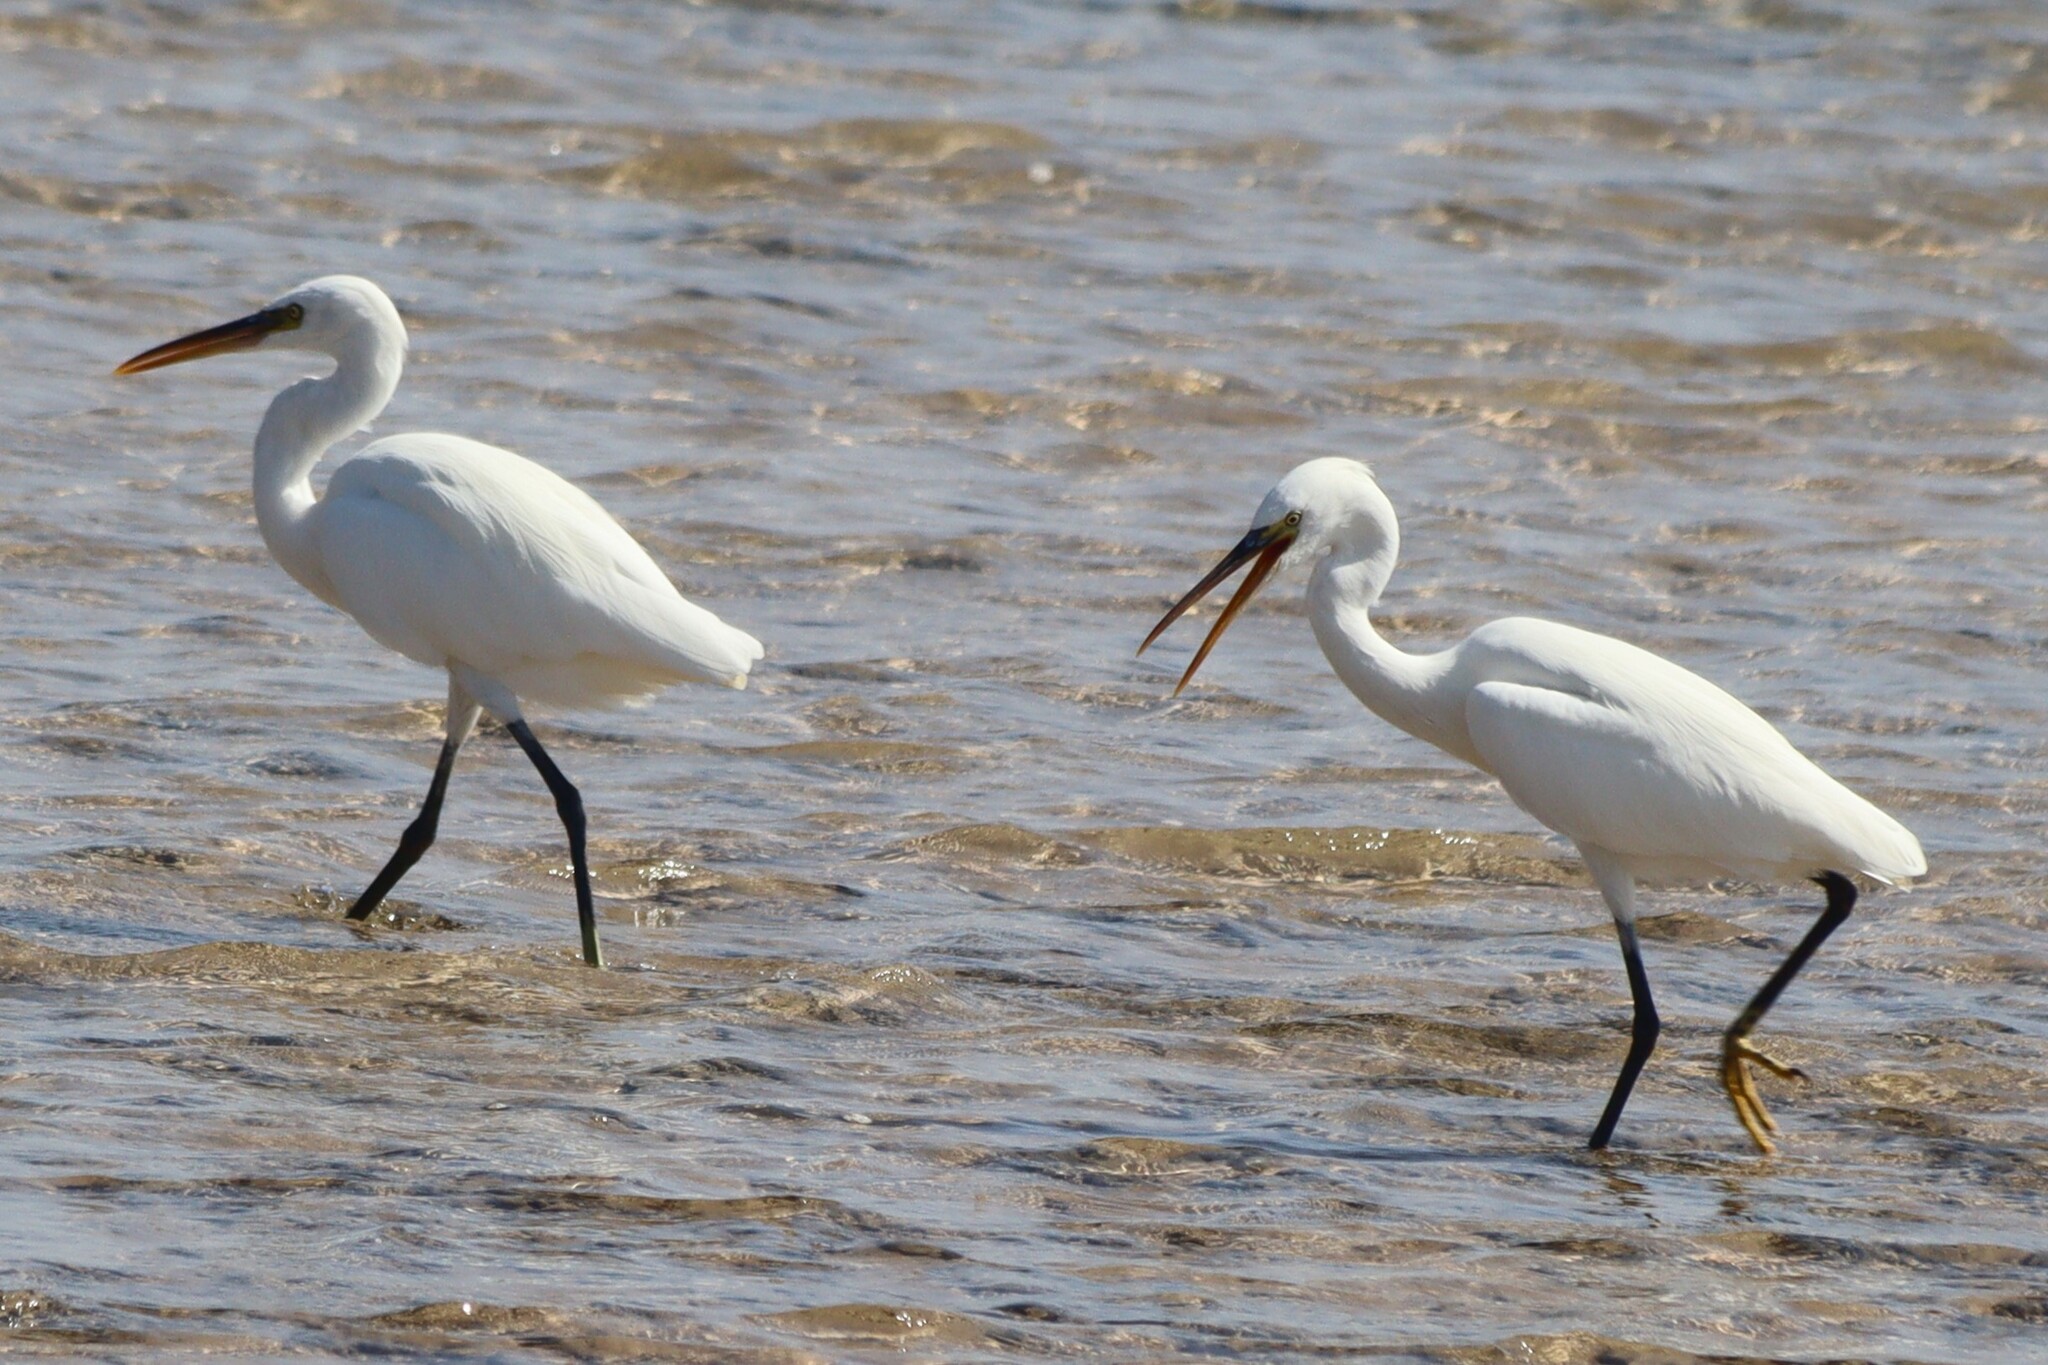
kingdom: Animalia
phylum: Chordata
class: Aves
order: Pelecaniformes
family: Ardeidae
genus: Egretta
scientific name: Egretta gularis
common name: Western reef-heron
